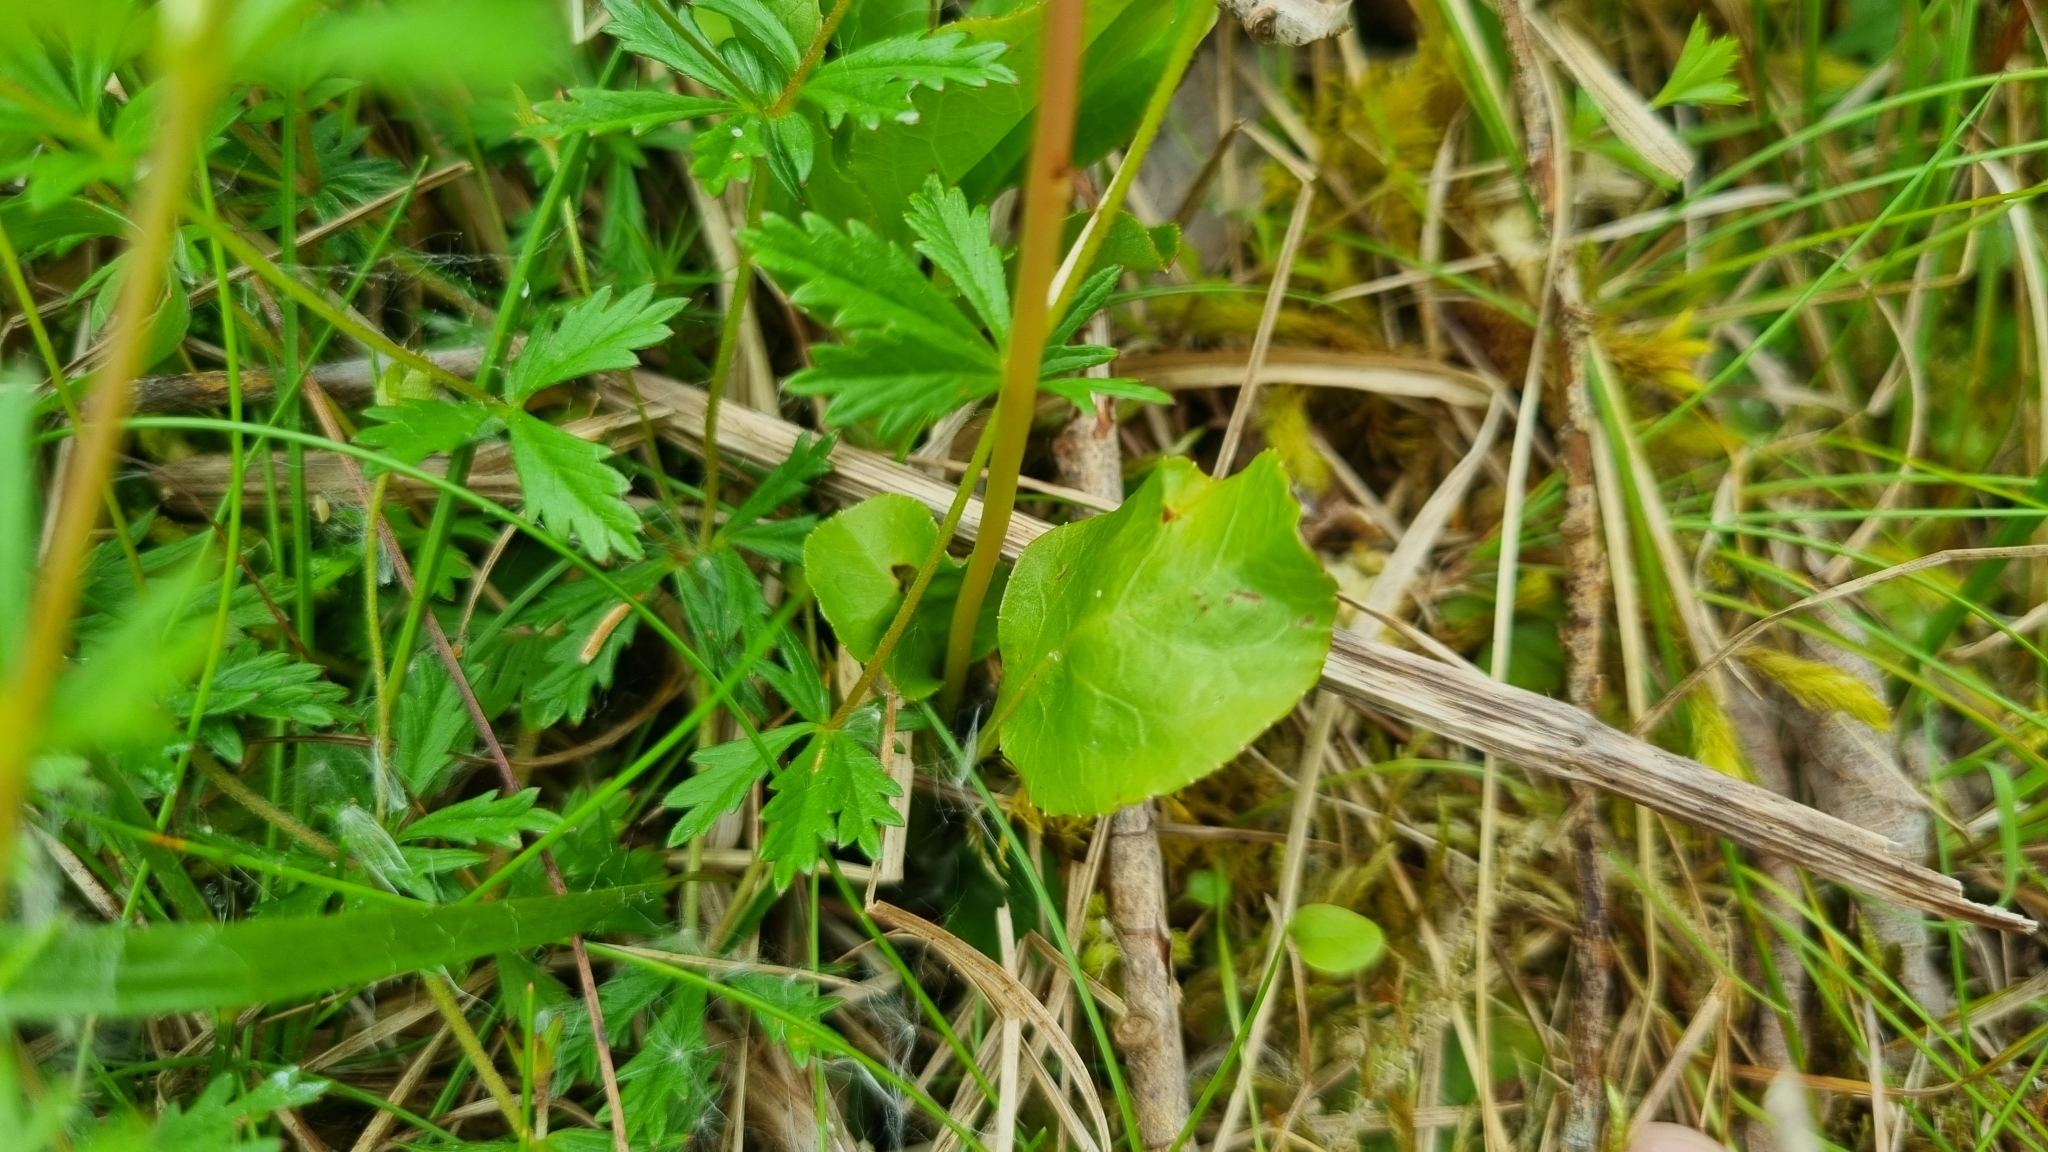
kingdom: Plantae
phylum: Tracheophyta
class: Magnoliopsida
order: Ericales
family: Ericaceae
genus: Pyrola
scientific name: Pyrola minor
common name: Common wintergreen
